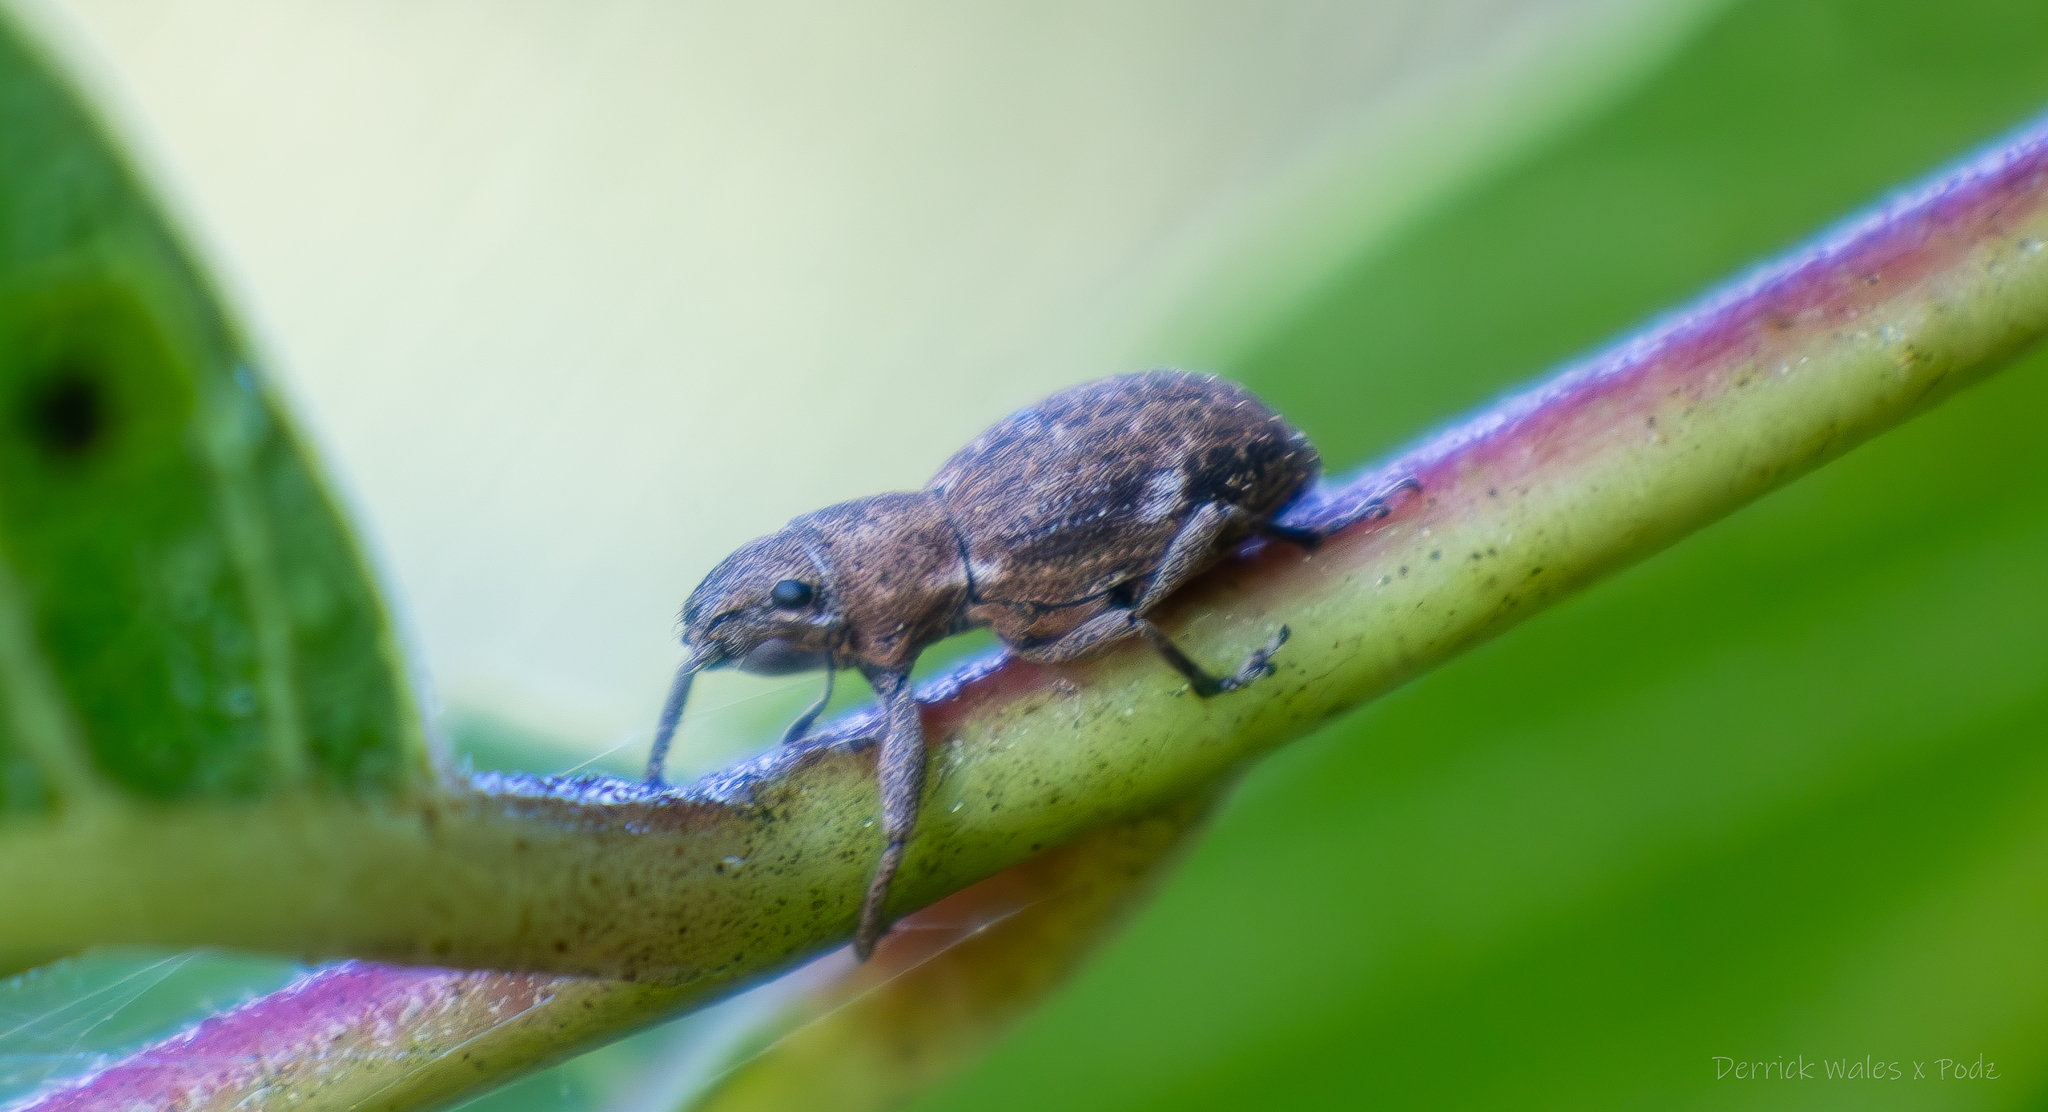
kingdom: Animalia
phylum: Arthropoda
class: Insecta
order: Coleoptera
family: Curculionidae
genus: Naupactus
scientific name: Naupactus cervinus
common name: Fuller rose beetle
